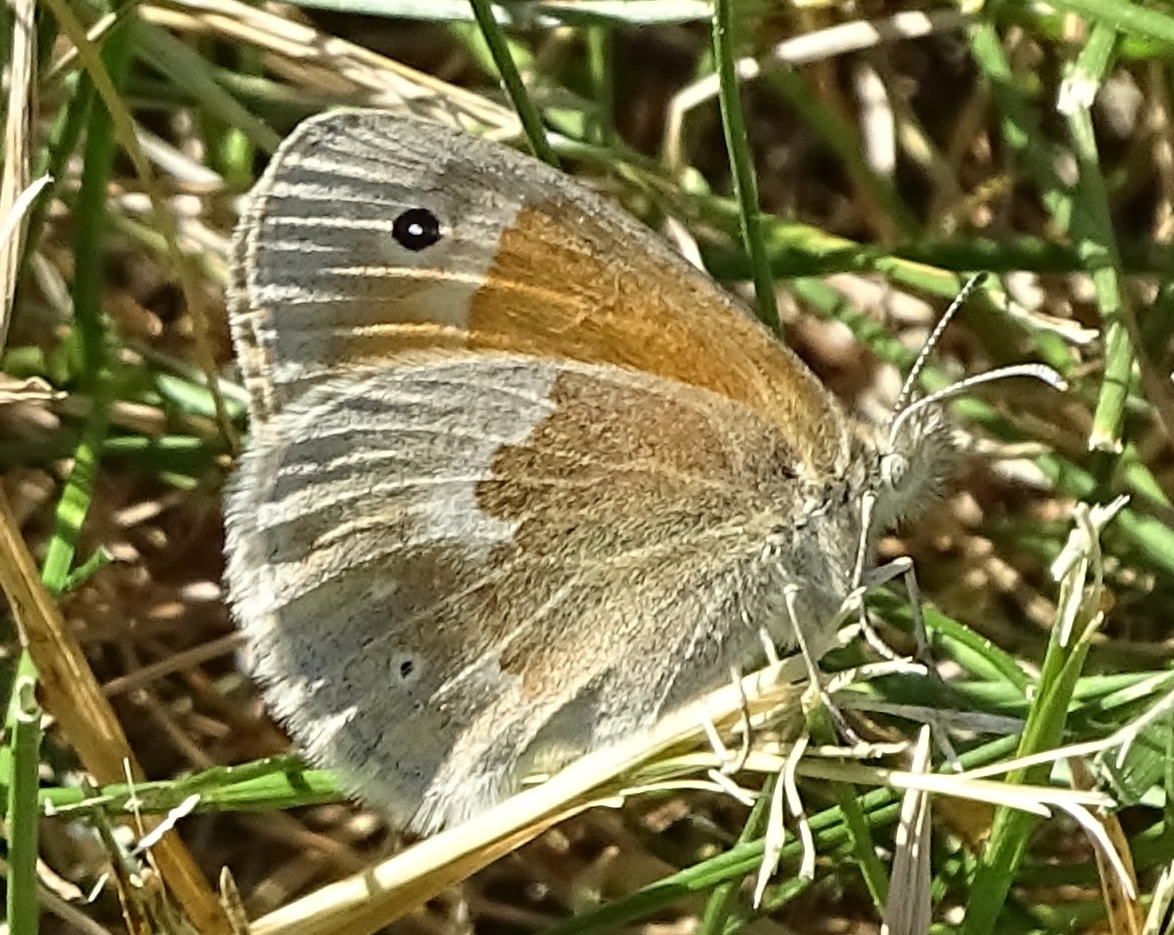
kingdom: Animalia
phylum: Arthropoda
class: Insecta
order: Lepidoptera
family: Nymphalidae
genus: Coenonympha
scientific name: Coenonympha california
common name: Common ringlet
